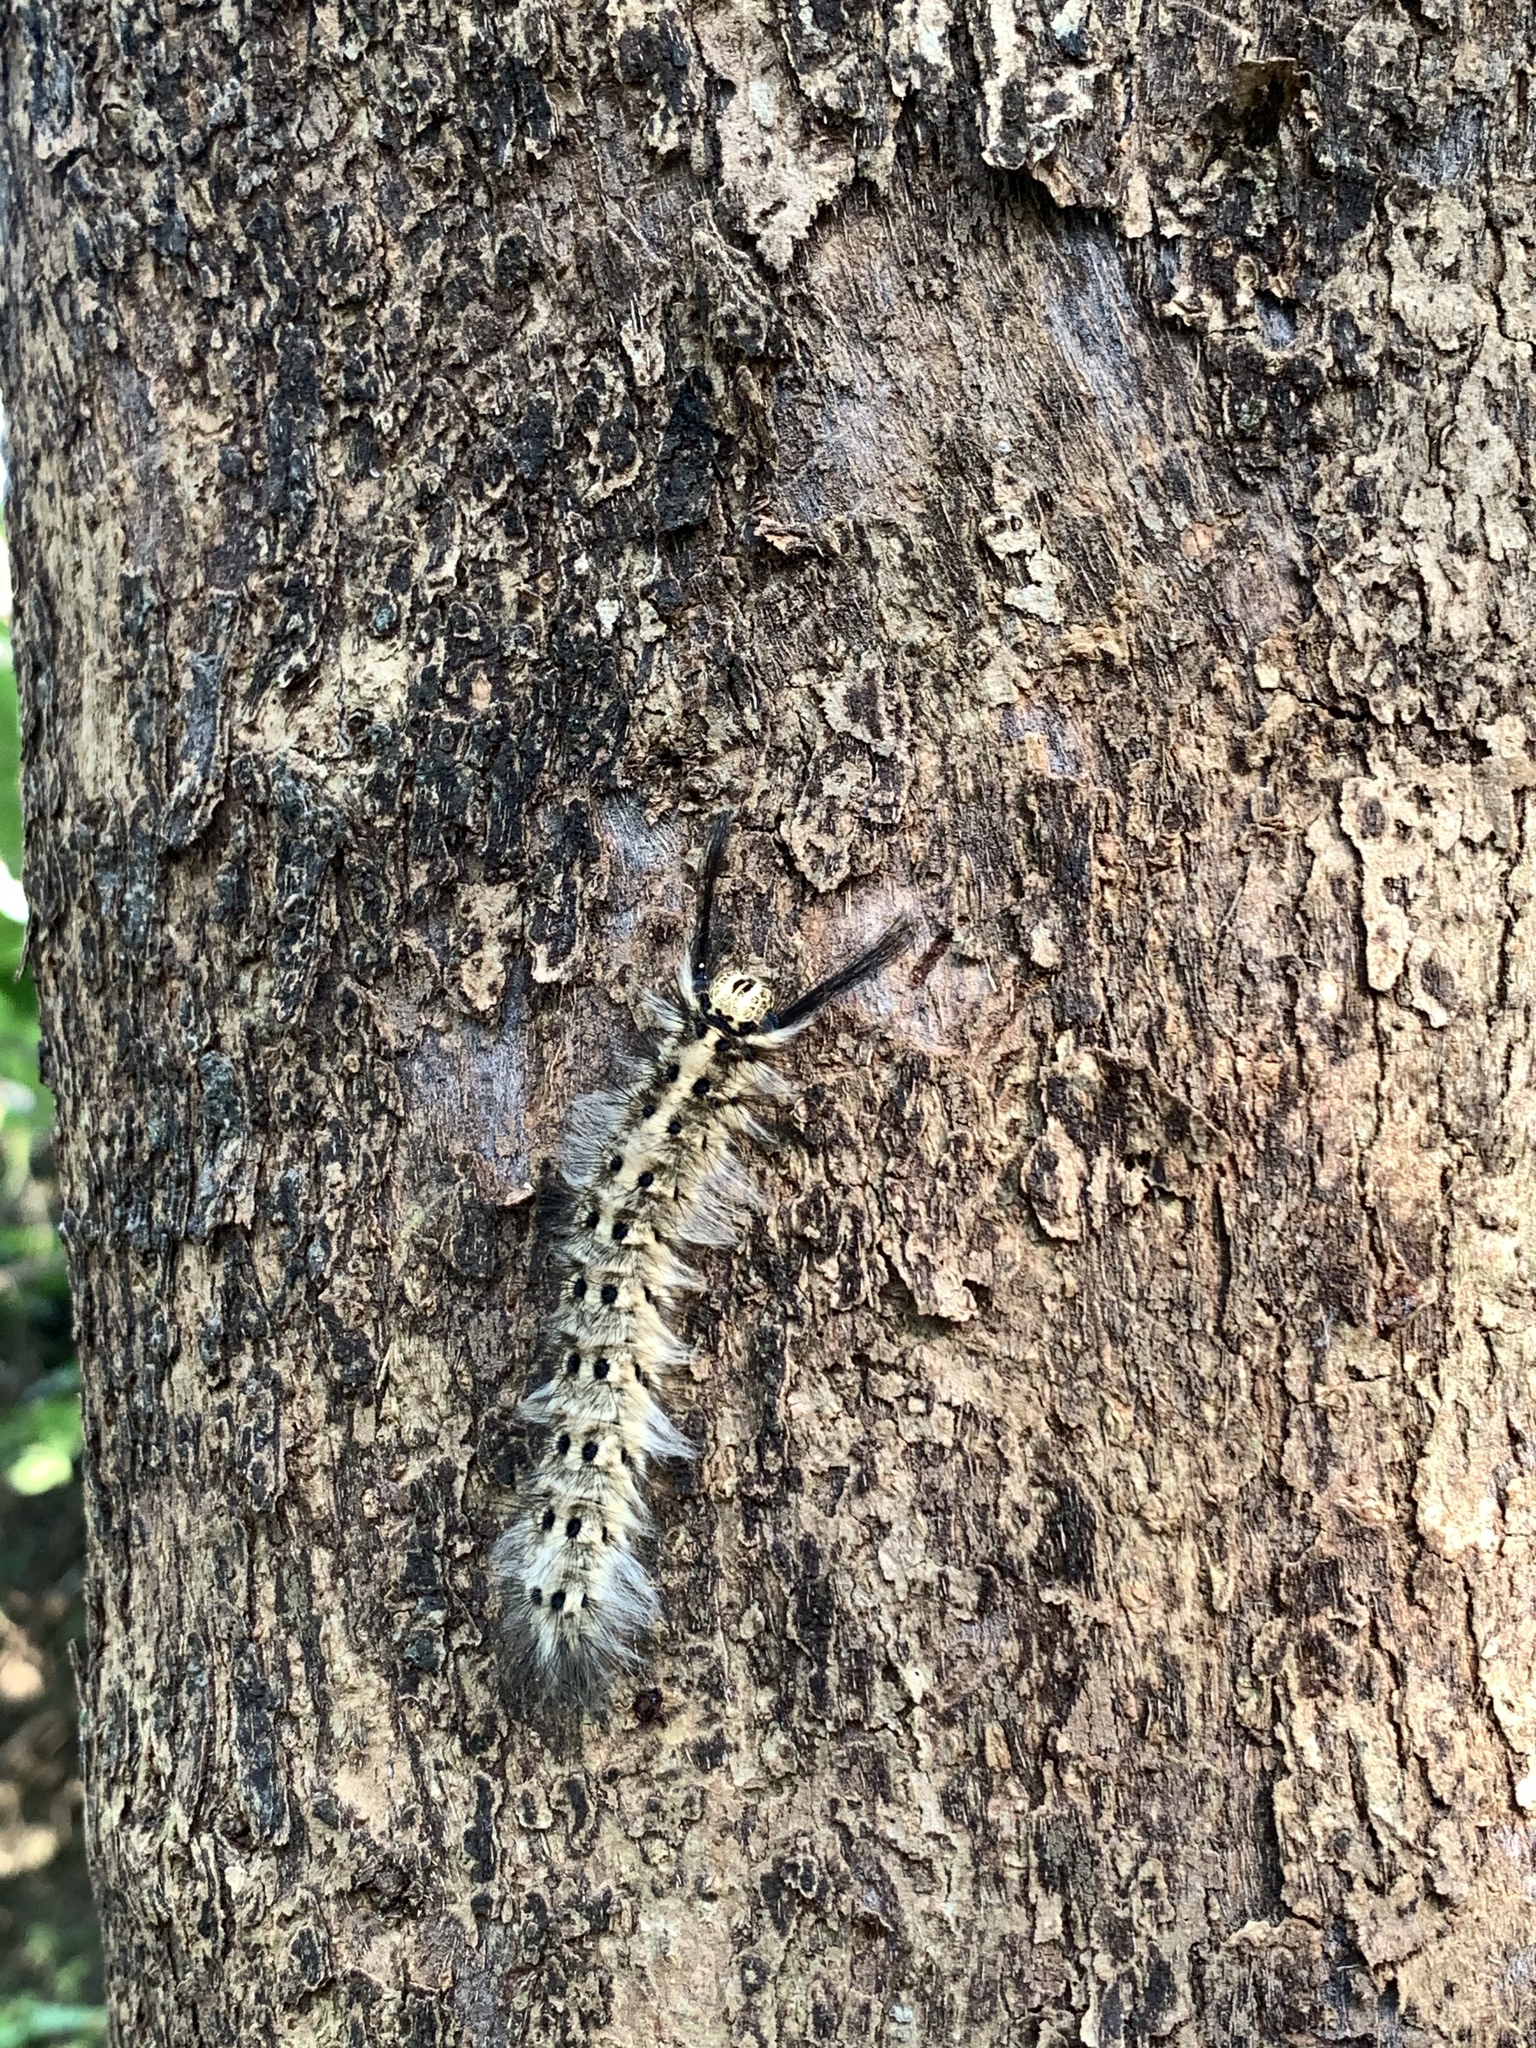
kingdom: Animalia
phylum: Arthropoda
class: Insecta
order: Lepidoptera
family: Lasiocampidae
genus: Trabala
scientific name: Trabala vishnou
